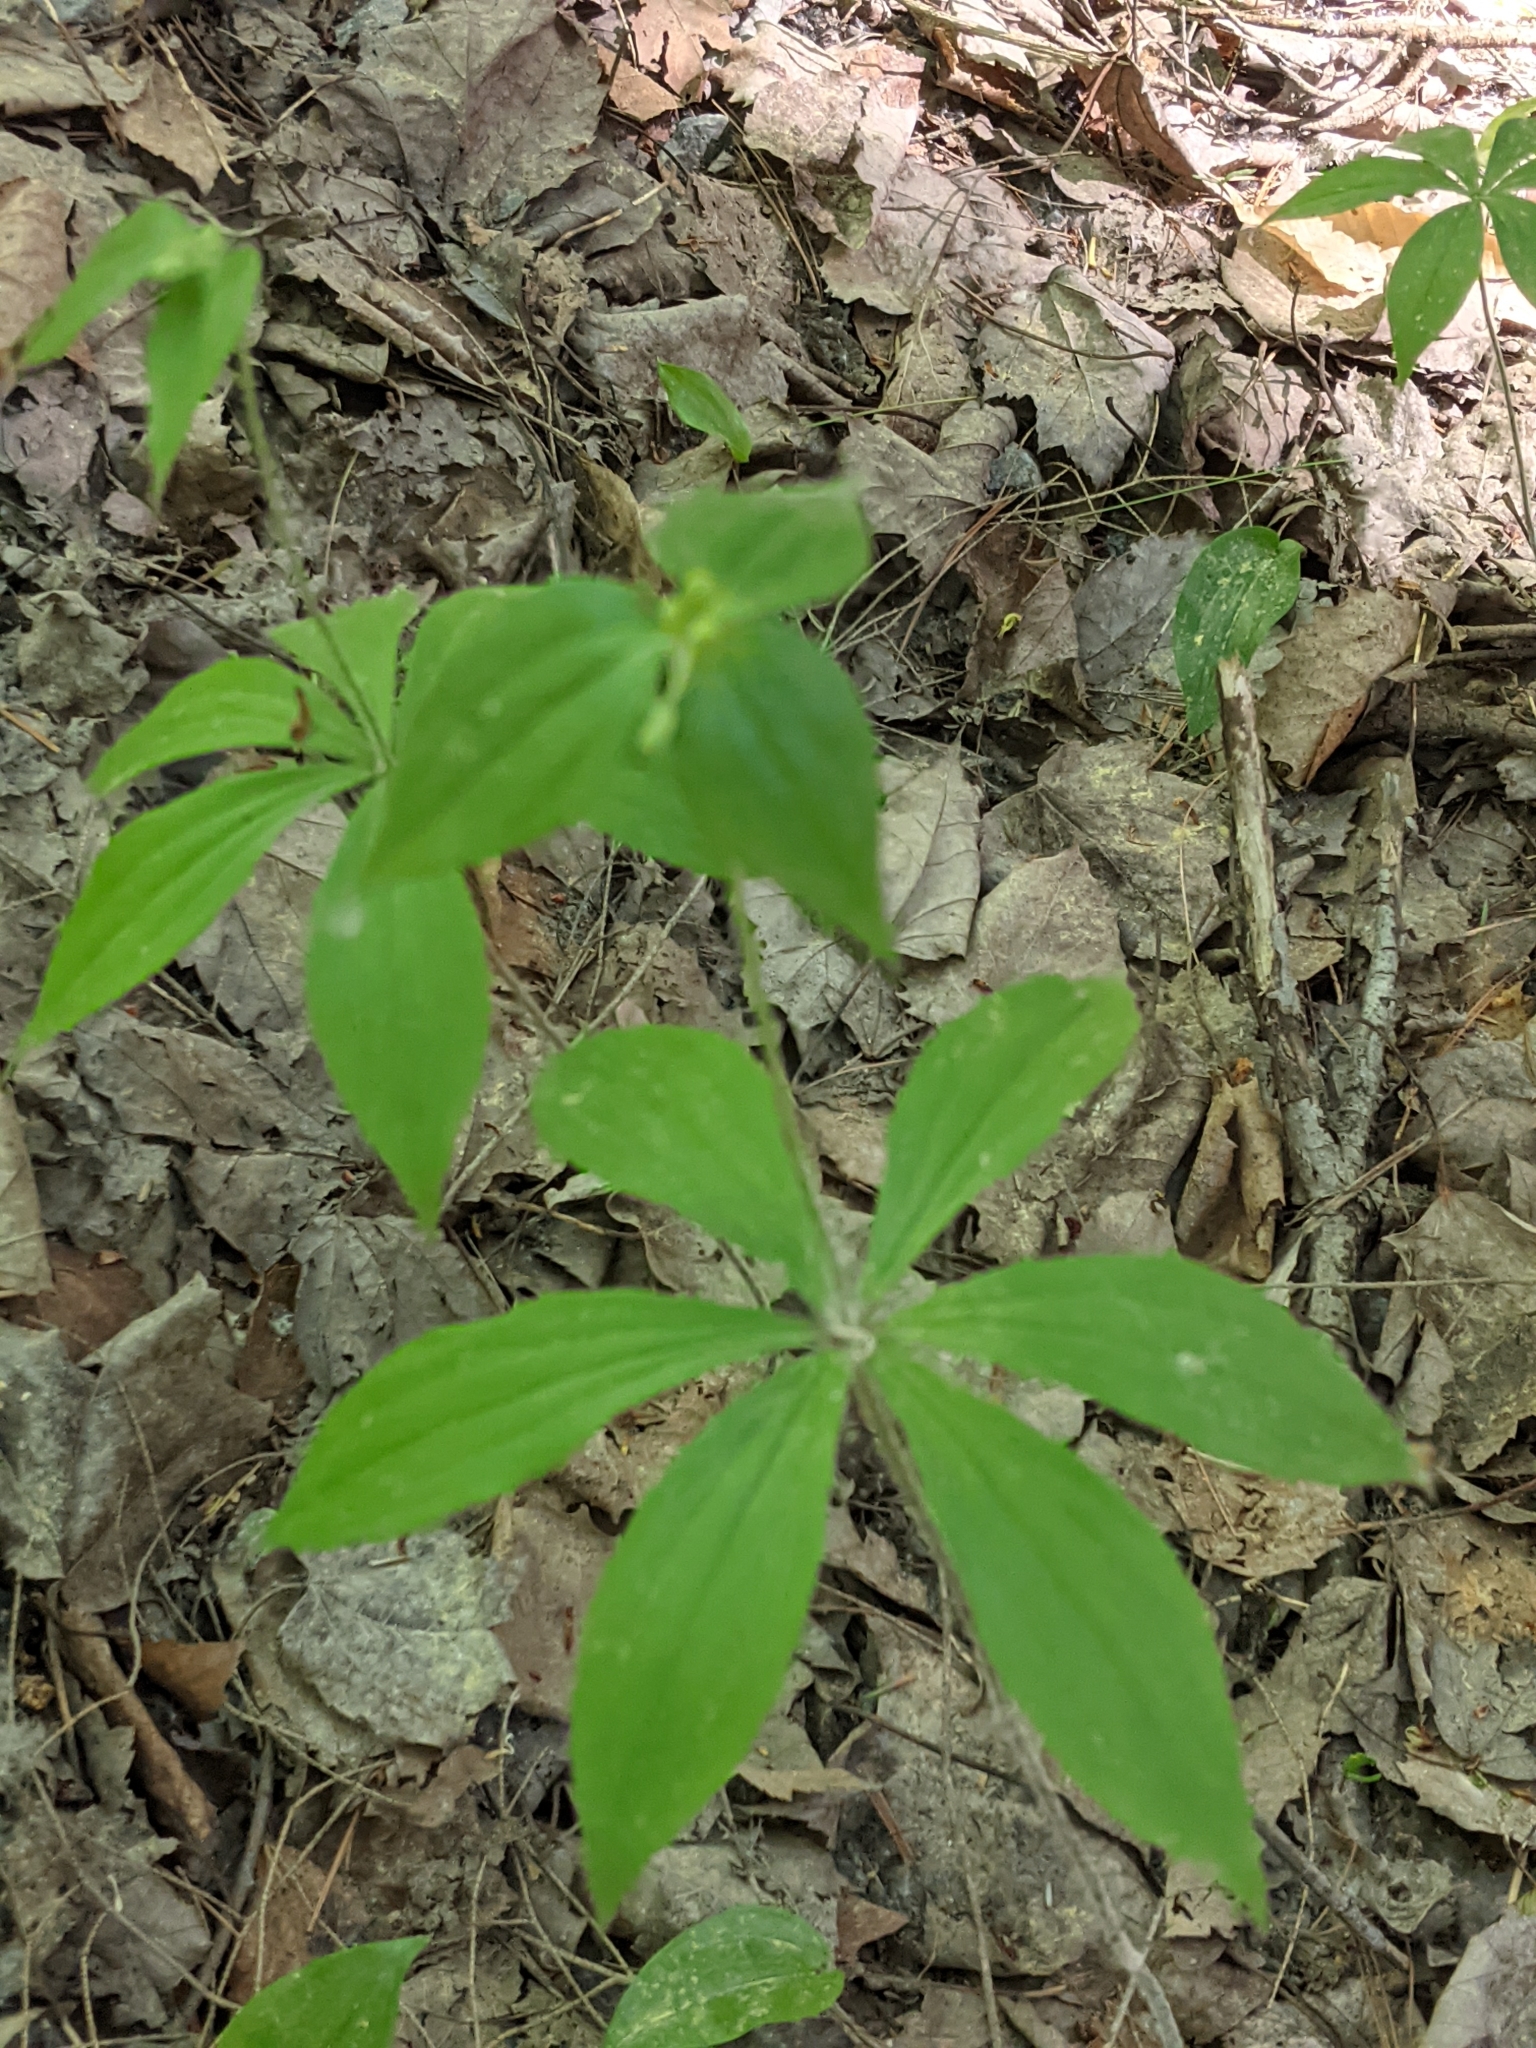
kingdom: Plantae
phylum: Tracheophyta
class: Liliopsida
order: Liliales
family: Liliaceae
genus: Medeola
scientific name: Medeola virginiana
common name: Indian cucumber-root
